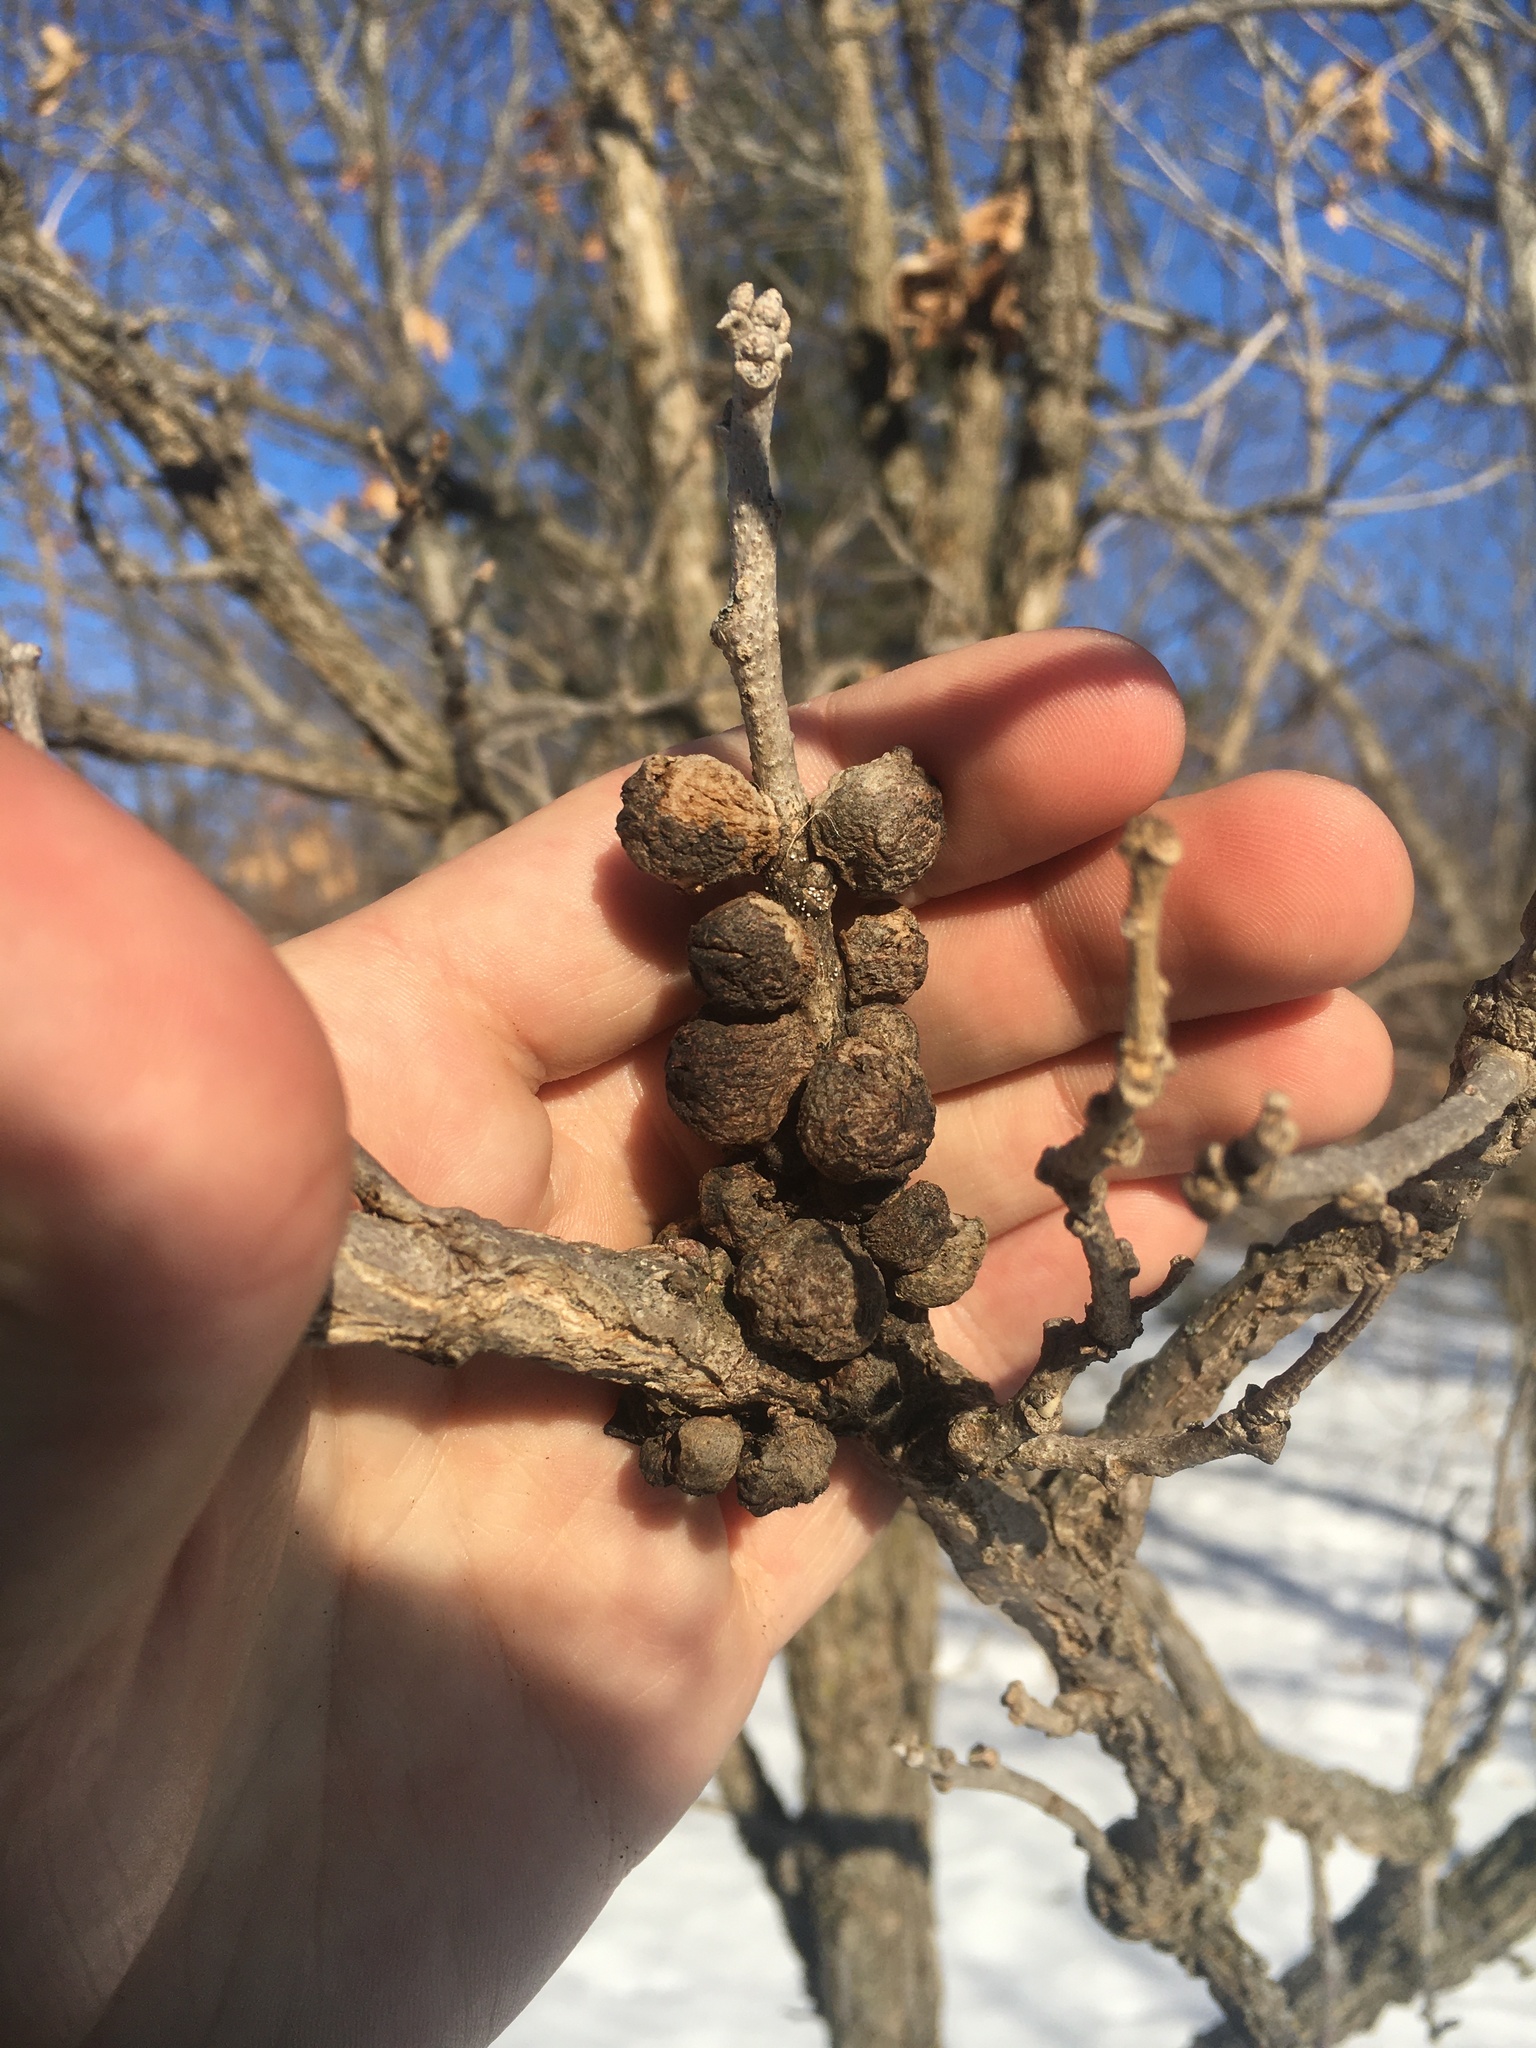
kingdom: Animalia
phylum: Arthropoda
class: Insecta
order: Hymenoptera
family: Cynipidae
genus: Disholcaspis
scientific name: Disholcaspis
